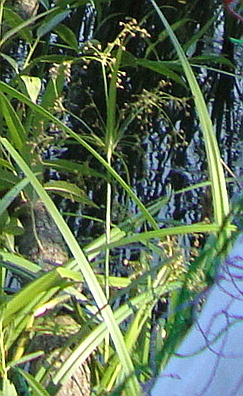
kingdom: Plantae
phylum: Tracheophyta
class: Liliopsida
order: Poales
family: Cyperaceae
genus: Scirpus
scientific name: Scirpus sylvaticus
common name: Wood club-rush
